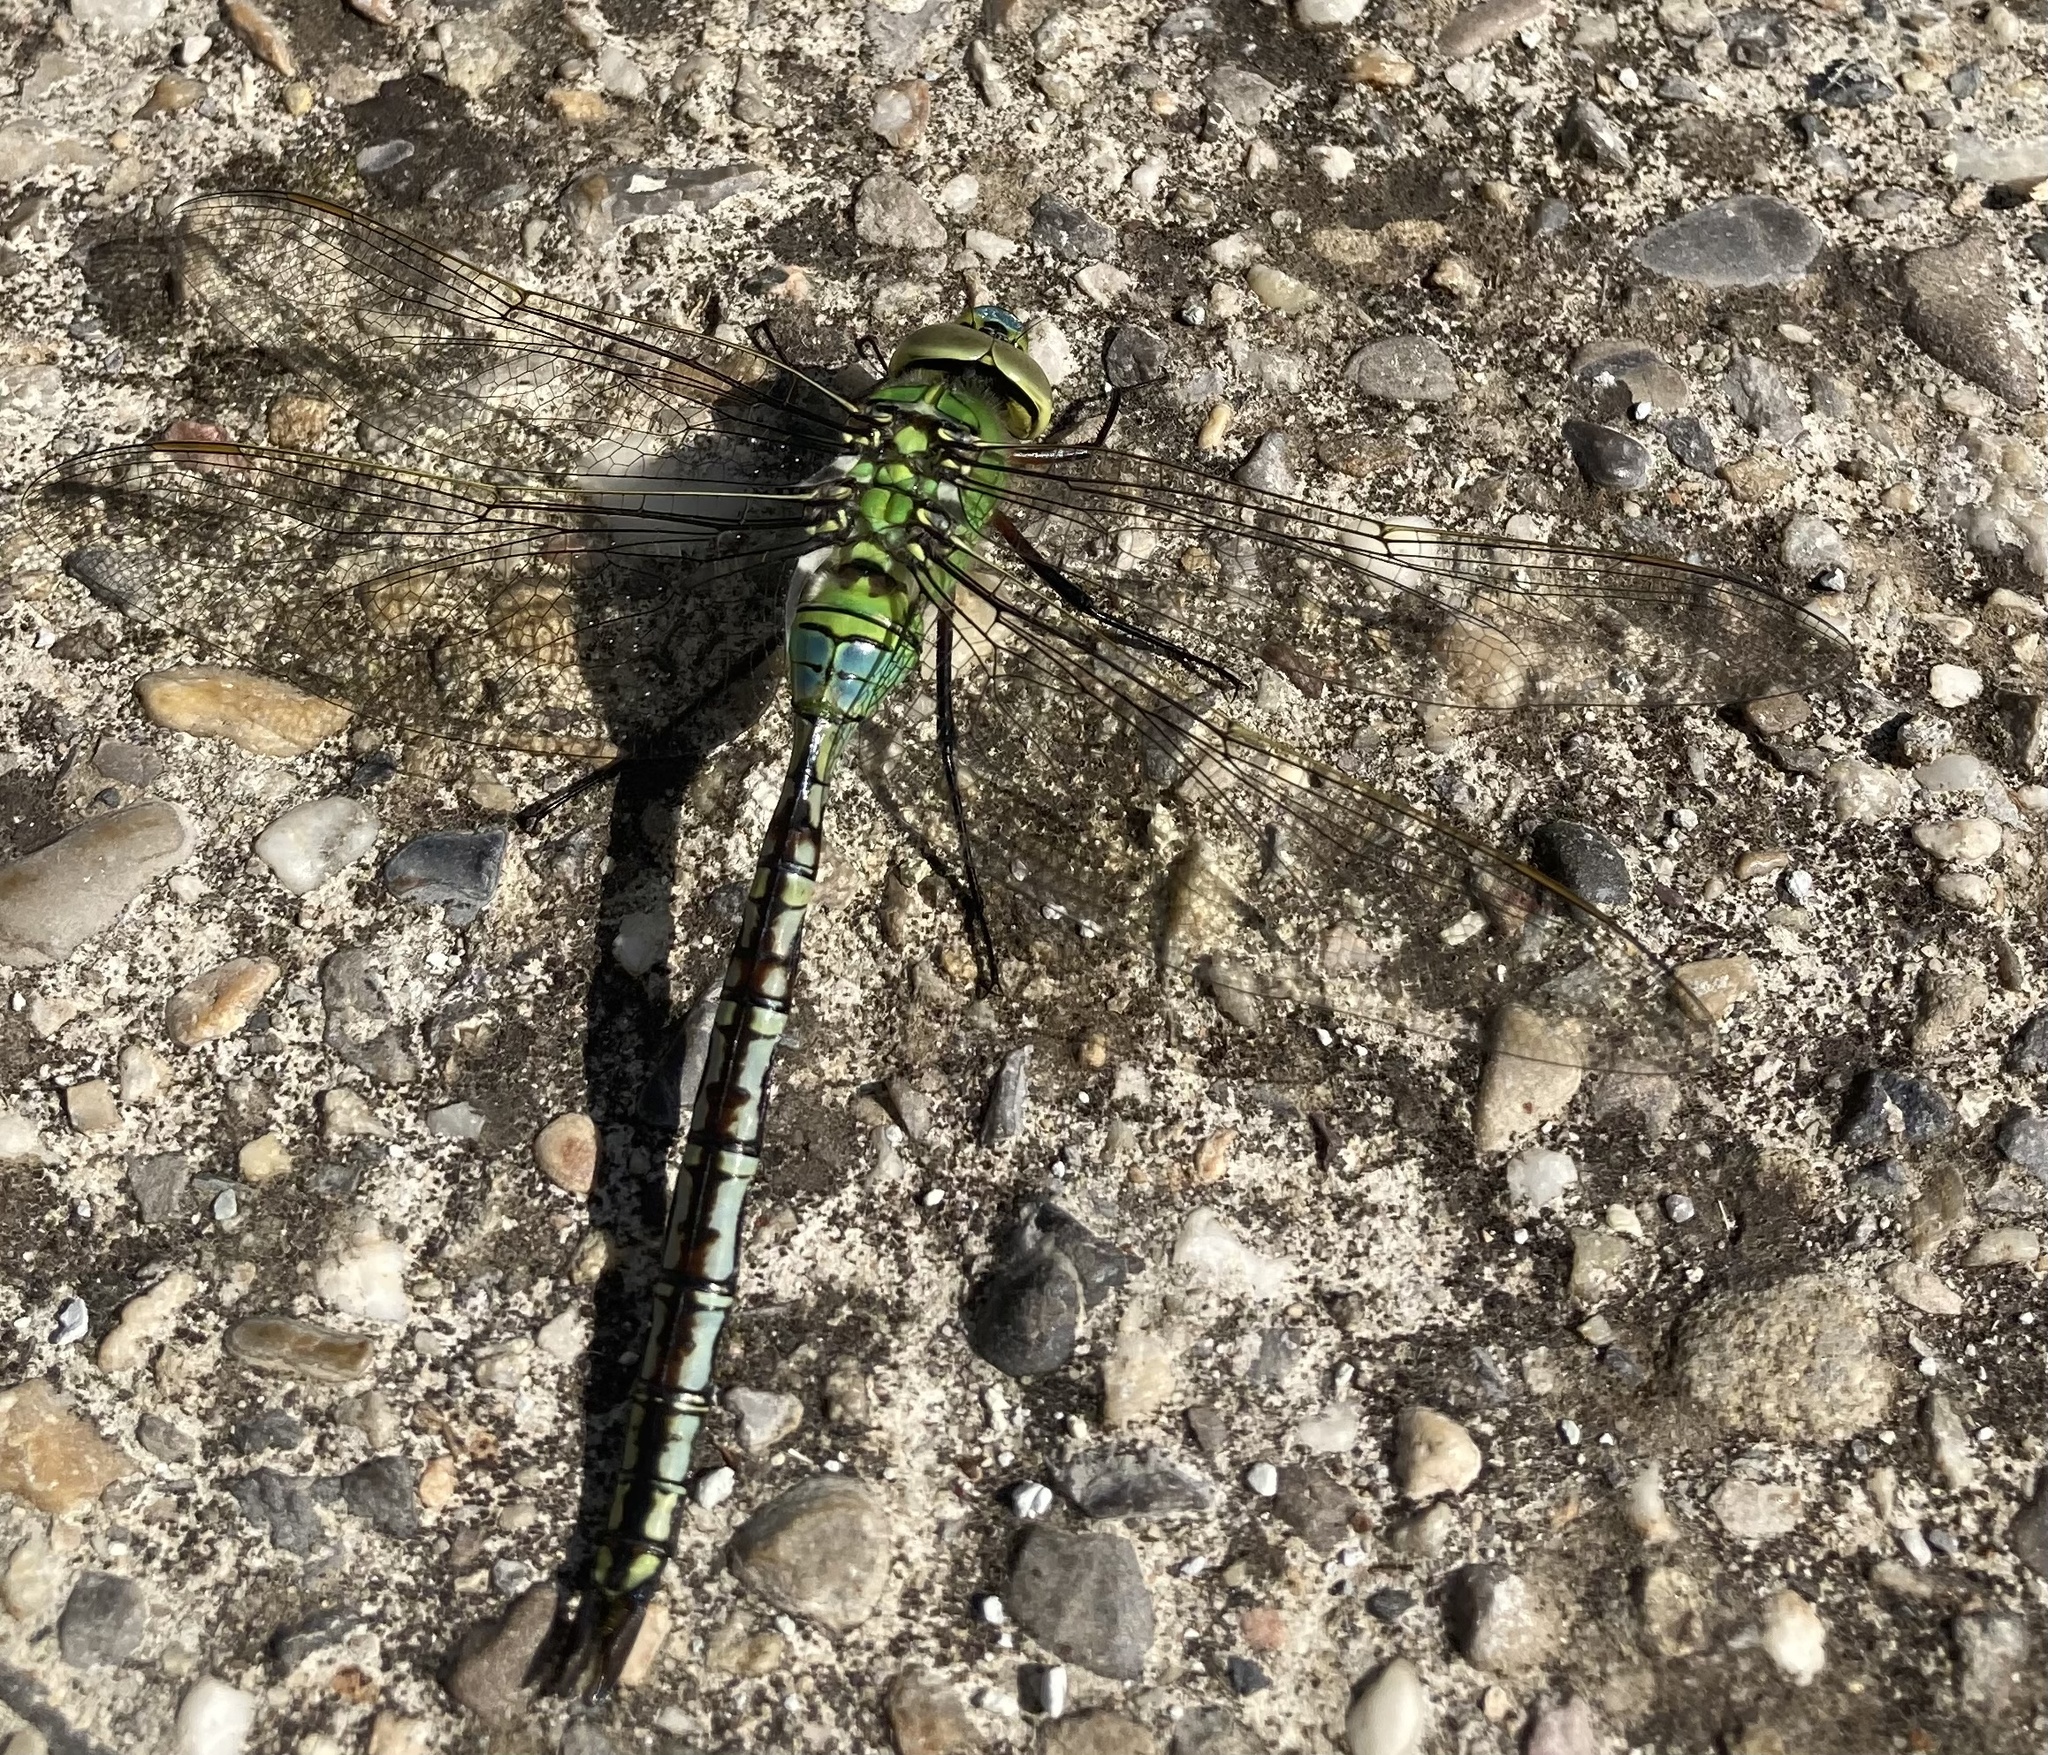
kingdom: Animalia
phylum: Arthropoda
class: Insecta
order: Odonata
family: Aeshnidae
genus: Anax
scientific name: Anax imperator
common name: Emperor dragonfly
